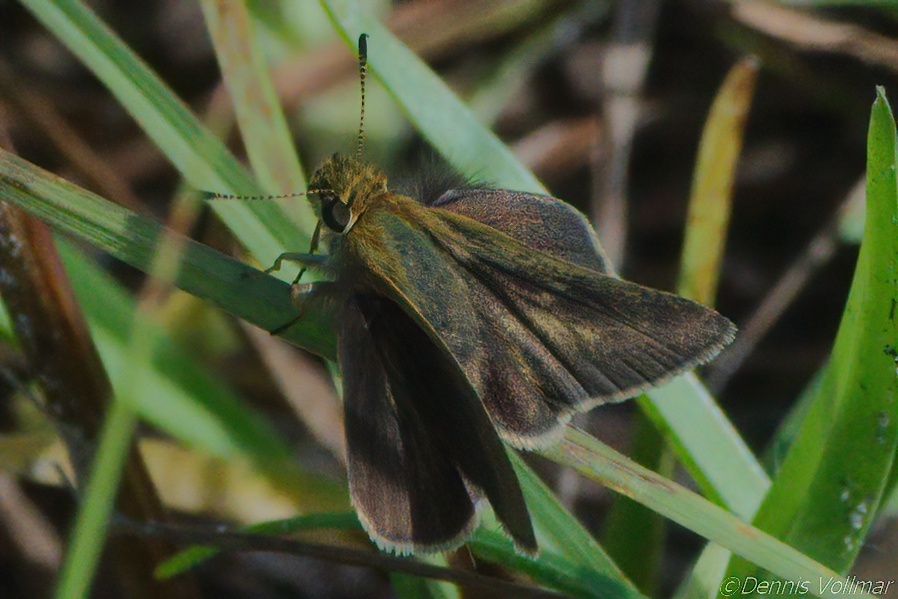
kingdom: Animalia
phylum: Arthropoda
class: Insecta
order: Lepidoptera
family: Hesperiidae
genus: Nastra
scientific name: Nastra lherminier
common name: Swarthy skipper
